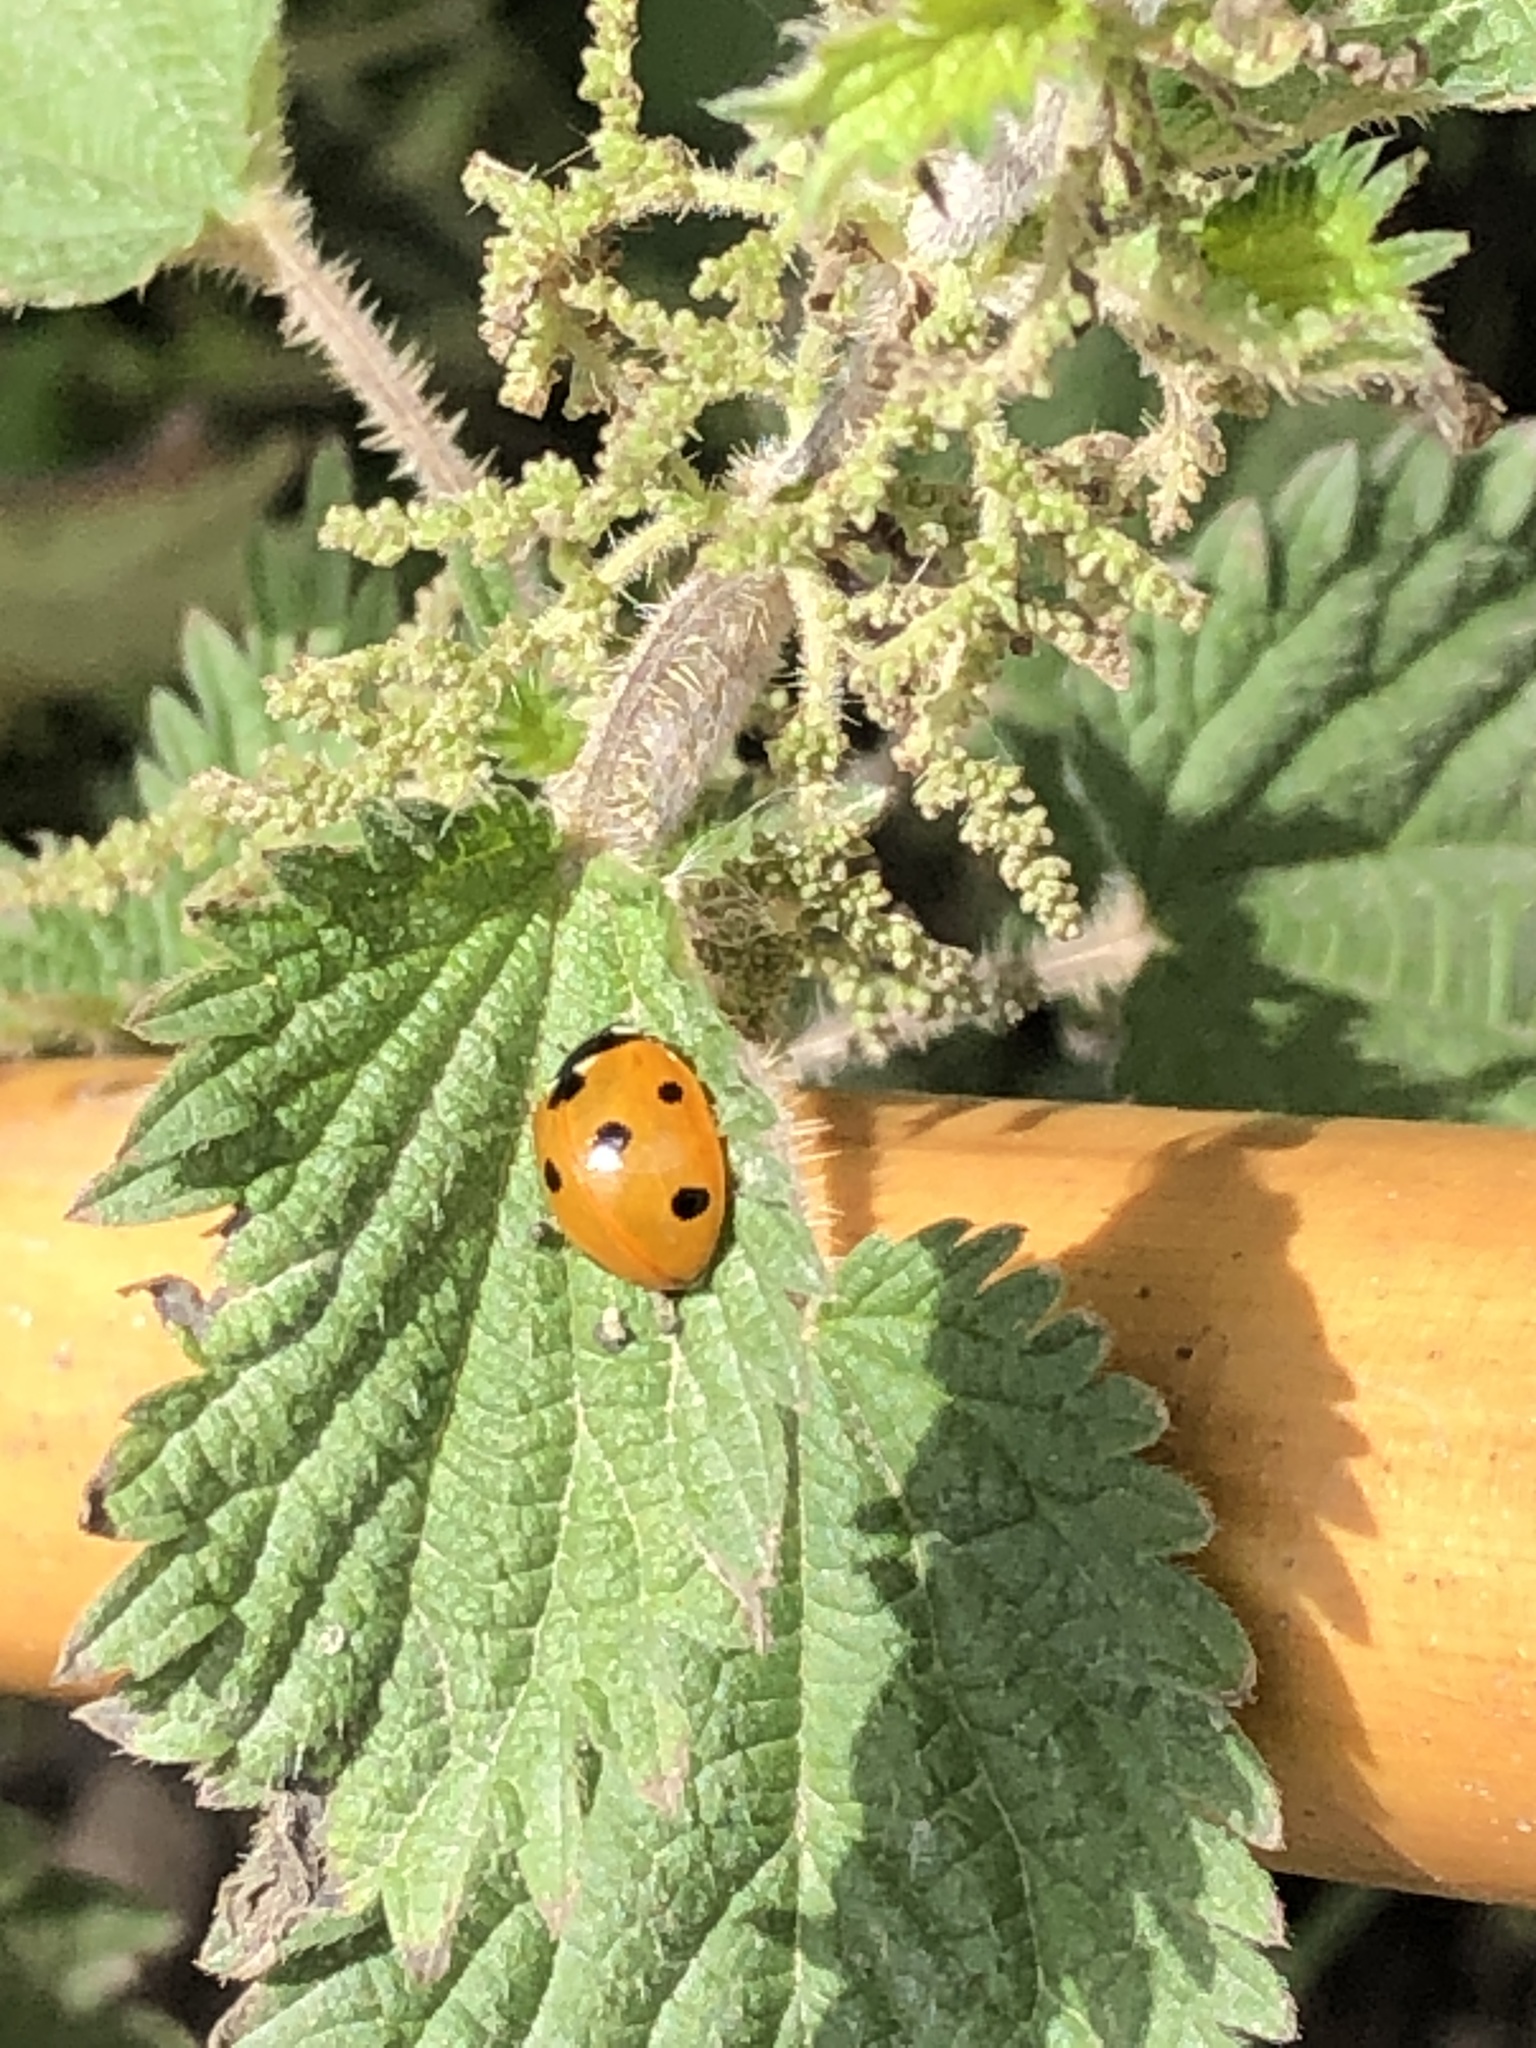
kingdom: Animalia
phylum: Arthropoda
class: Insecta
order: Coleoptera
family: Coccinellidae
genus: Coccinella
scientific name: Coccinella septempunctata
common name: Sevenspotted lady beetle
